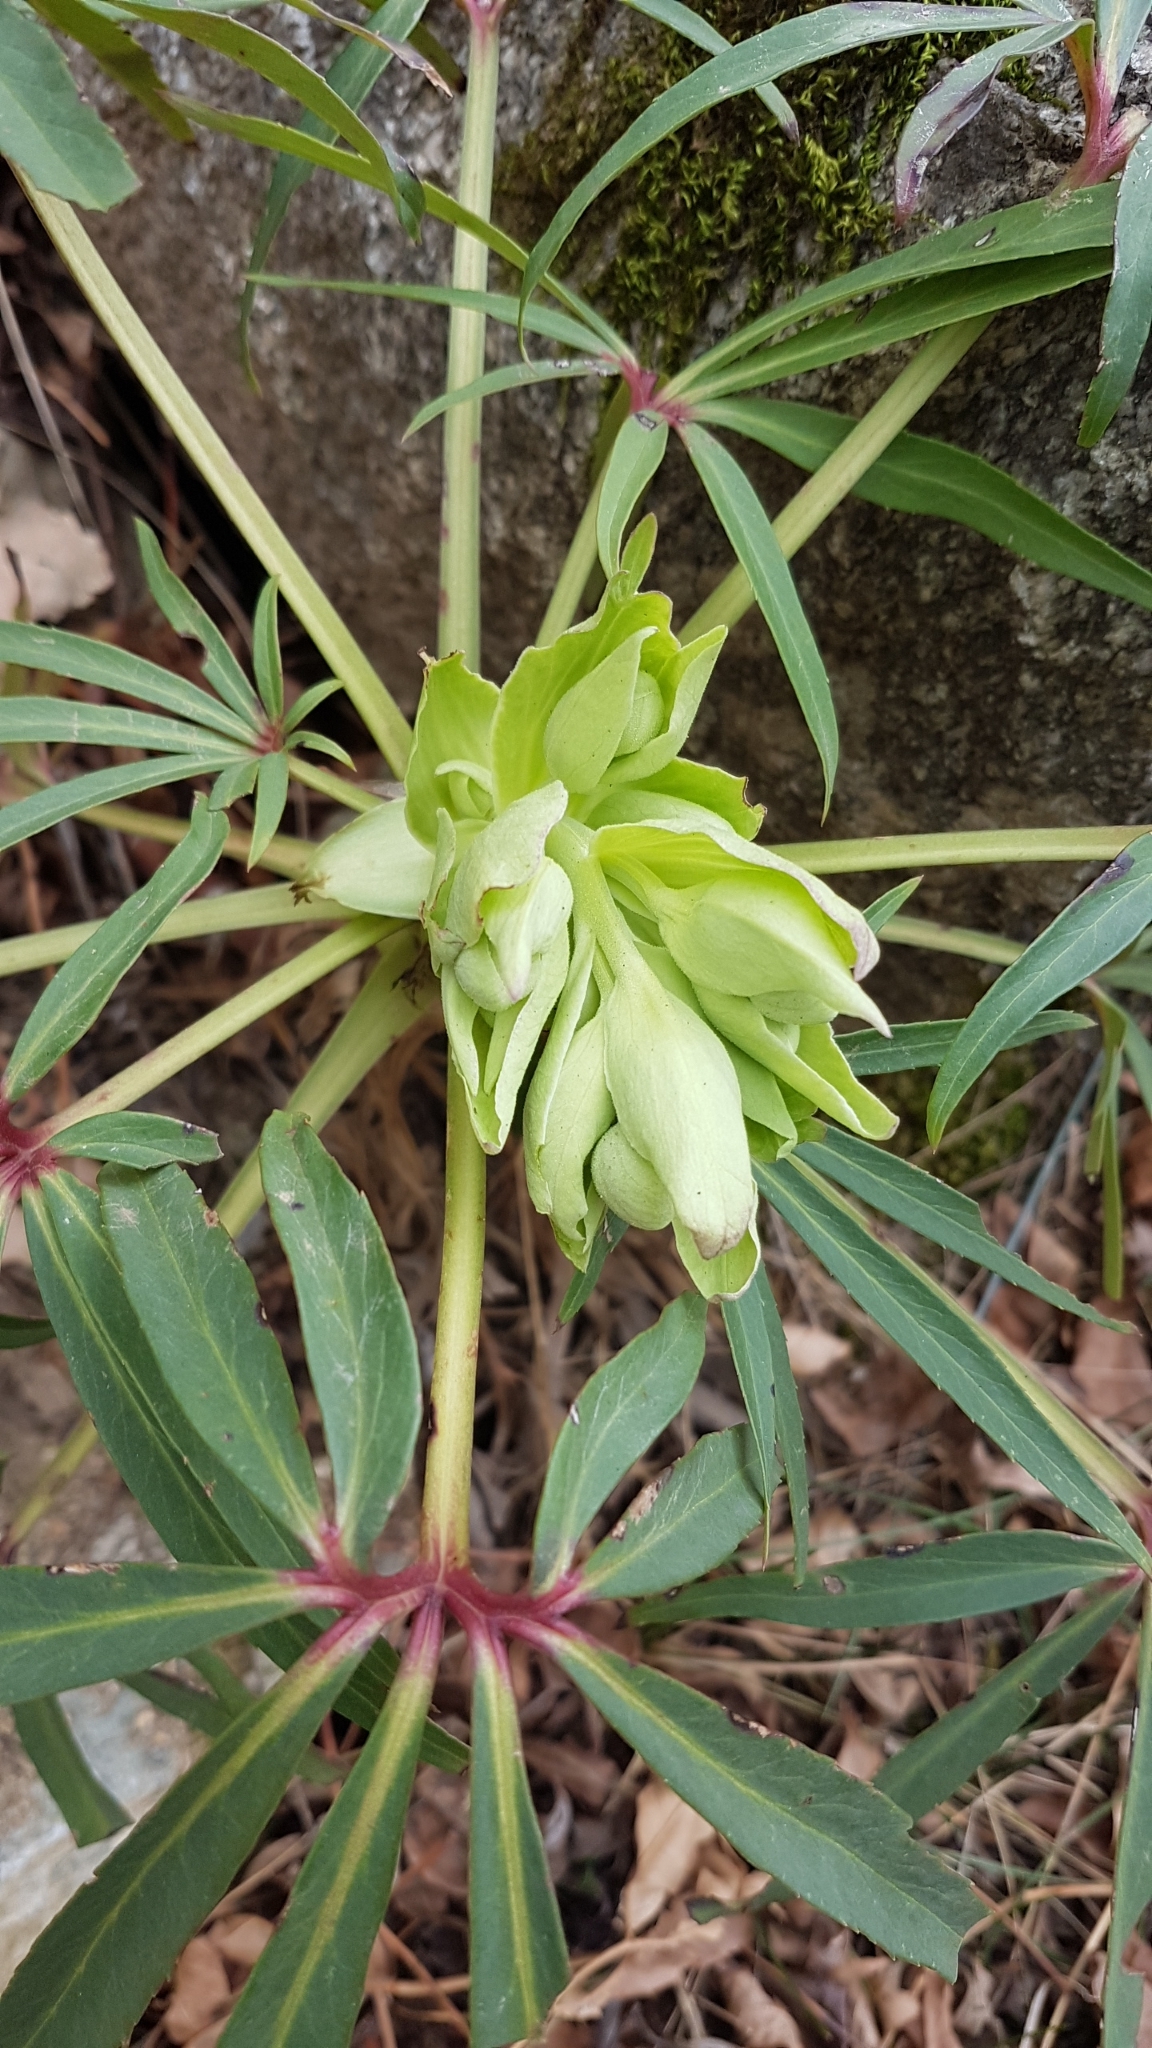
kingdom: Plantae
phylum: Tracheophyta
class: Magnoliopsida
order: Ranunculales
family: Ranunculaceae
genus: Helleborus
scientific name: Helleborus foetidus
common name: Stinking hellebore
